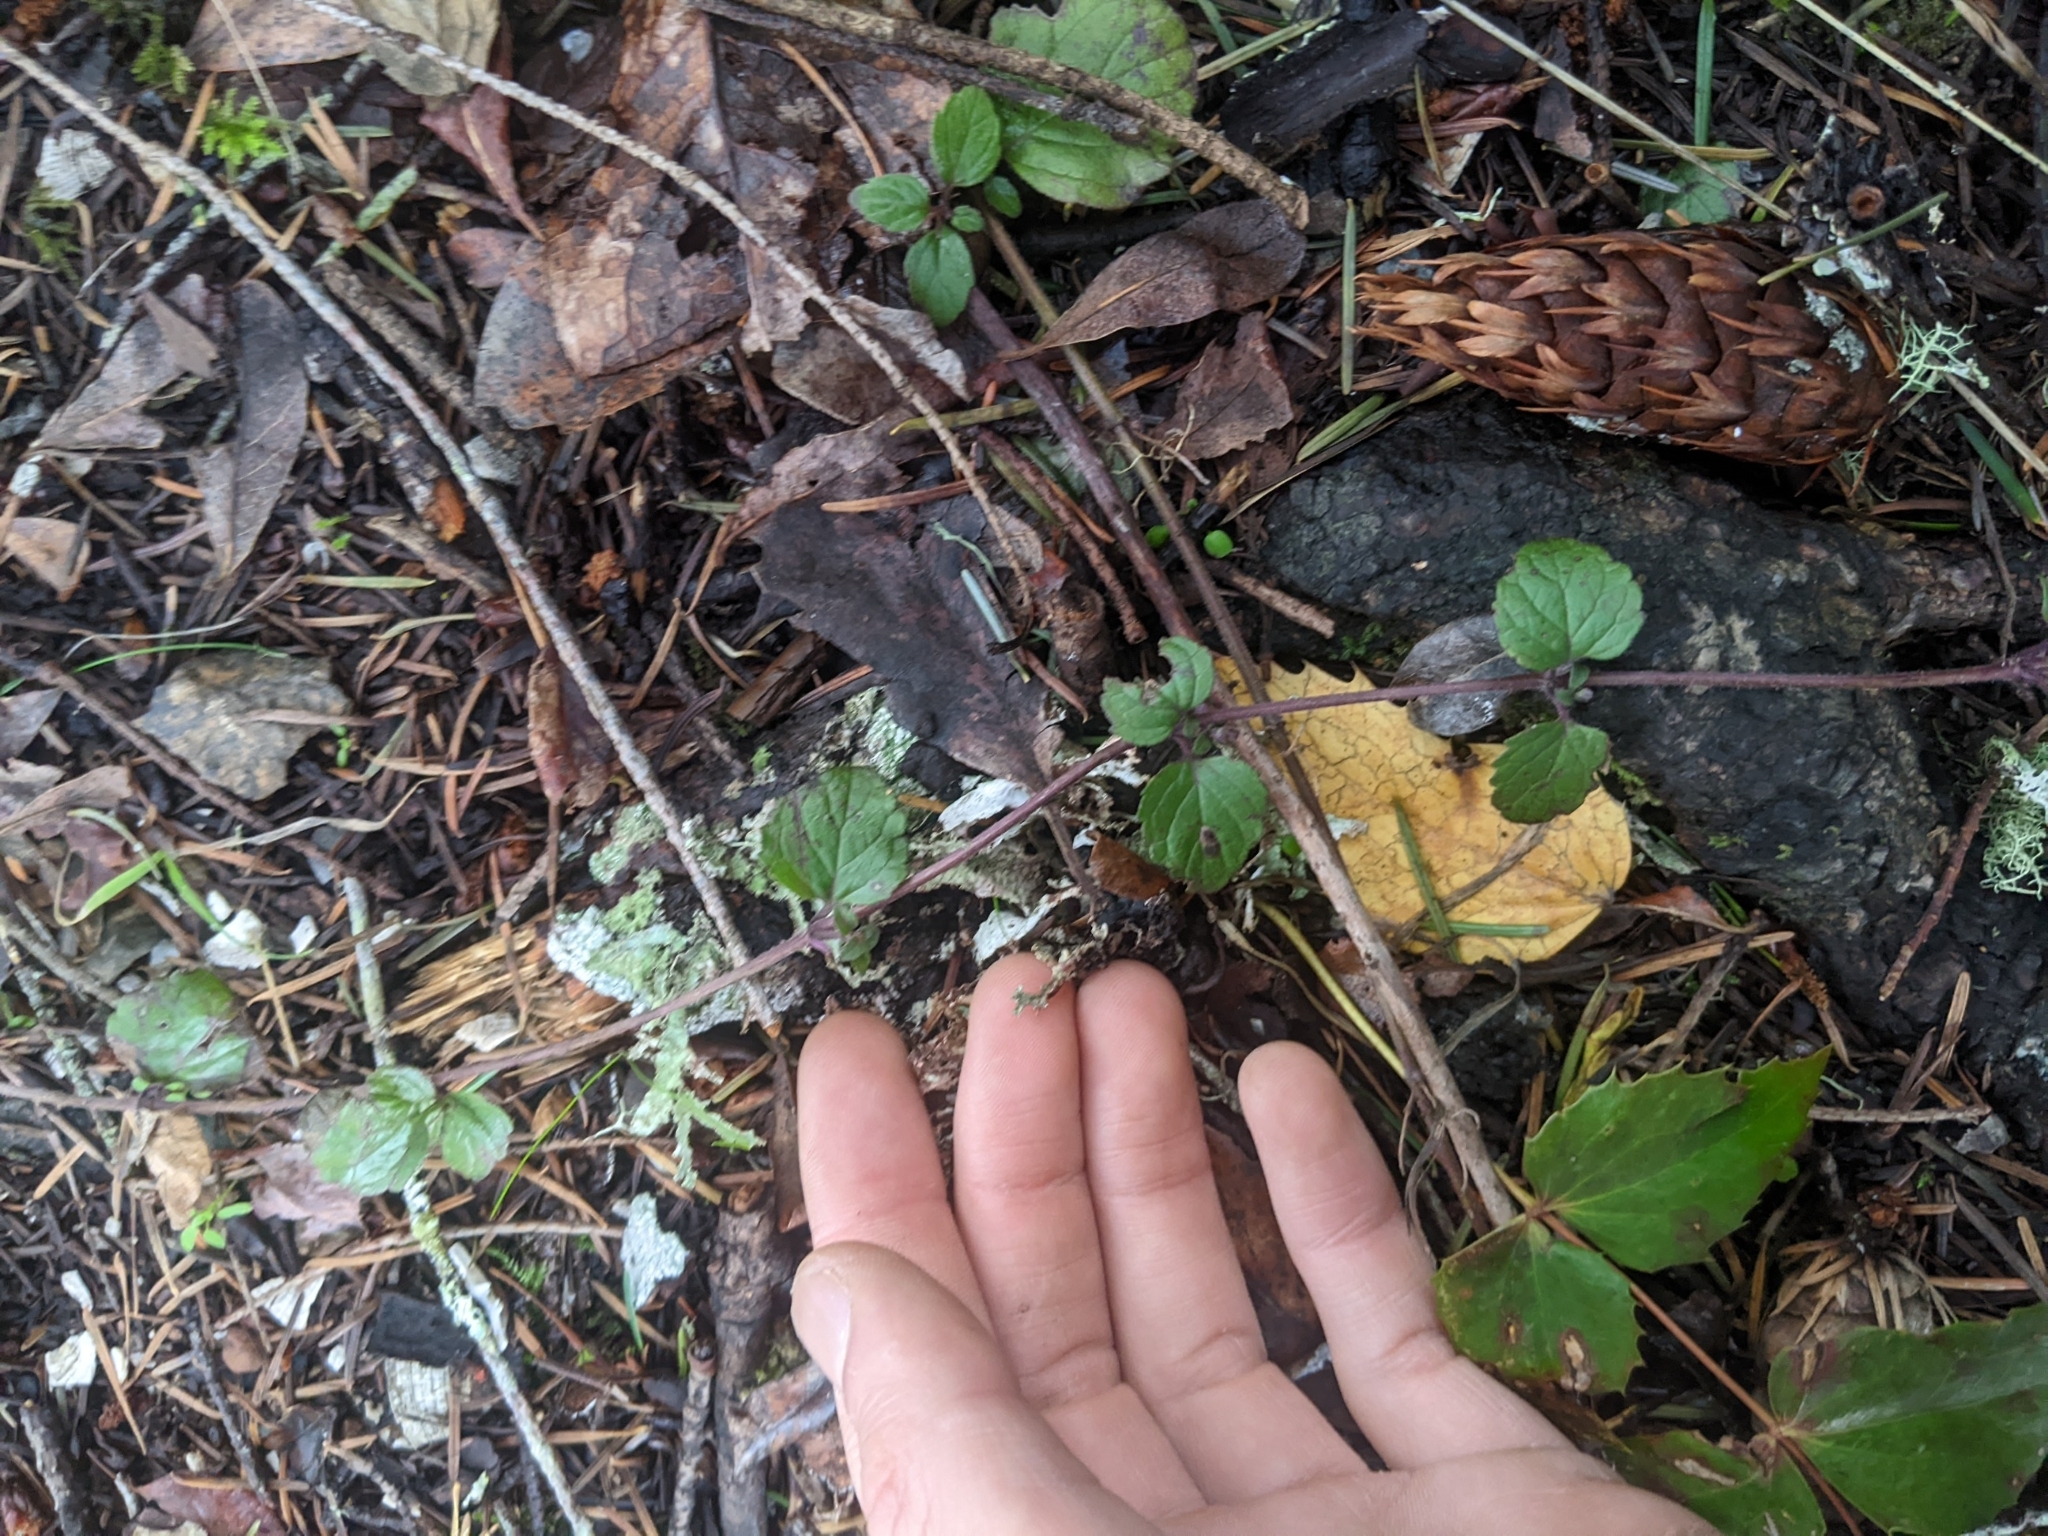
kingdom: Plantae
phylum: Tracheophyta
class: Magnoliopsida
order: Lamiales
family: Lamiaceae
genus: Micromeria
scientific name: Micromeria douglasii
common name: Yerba buena
